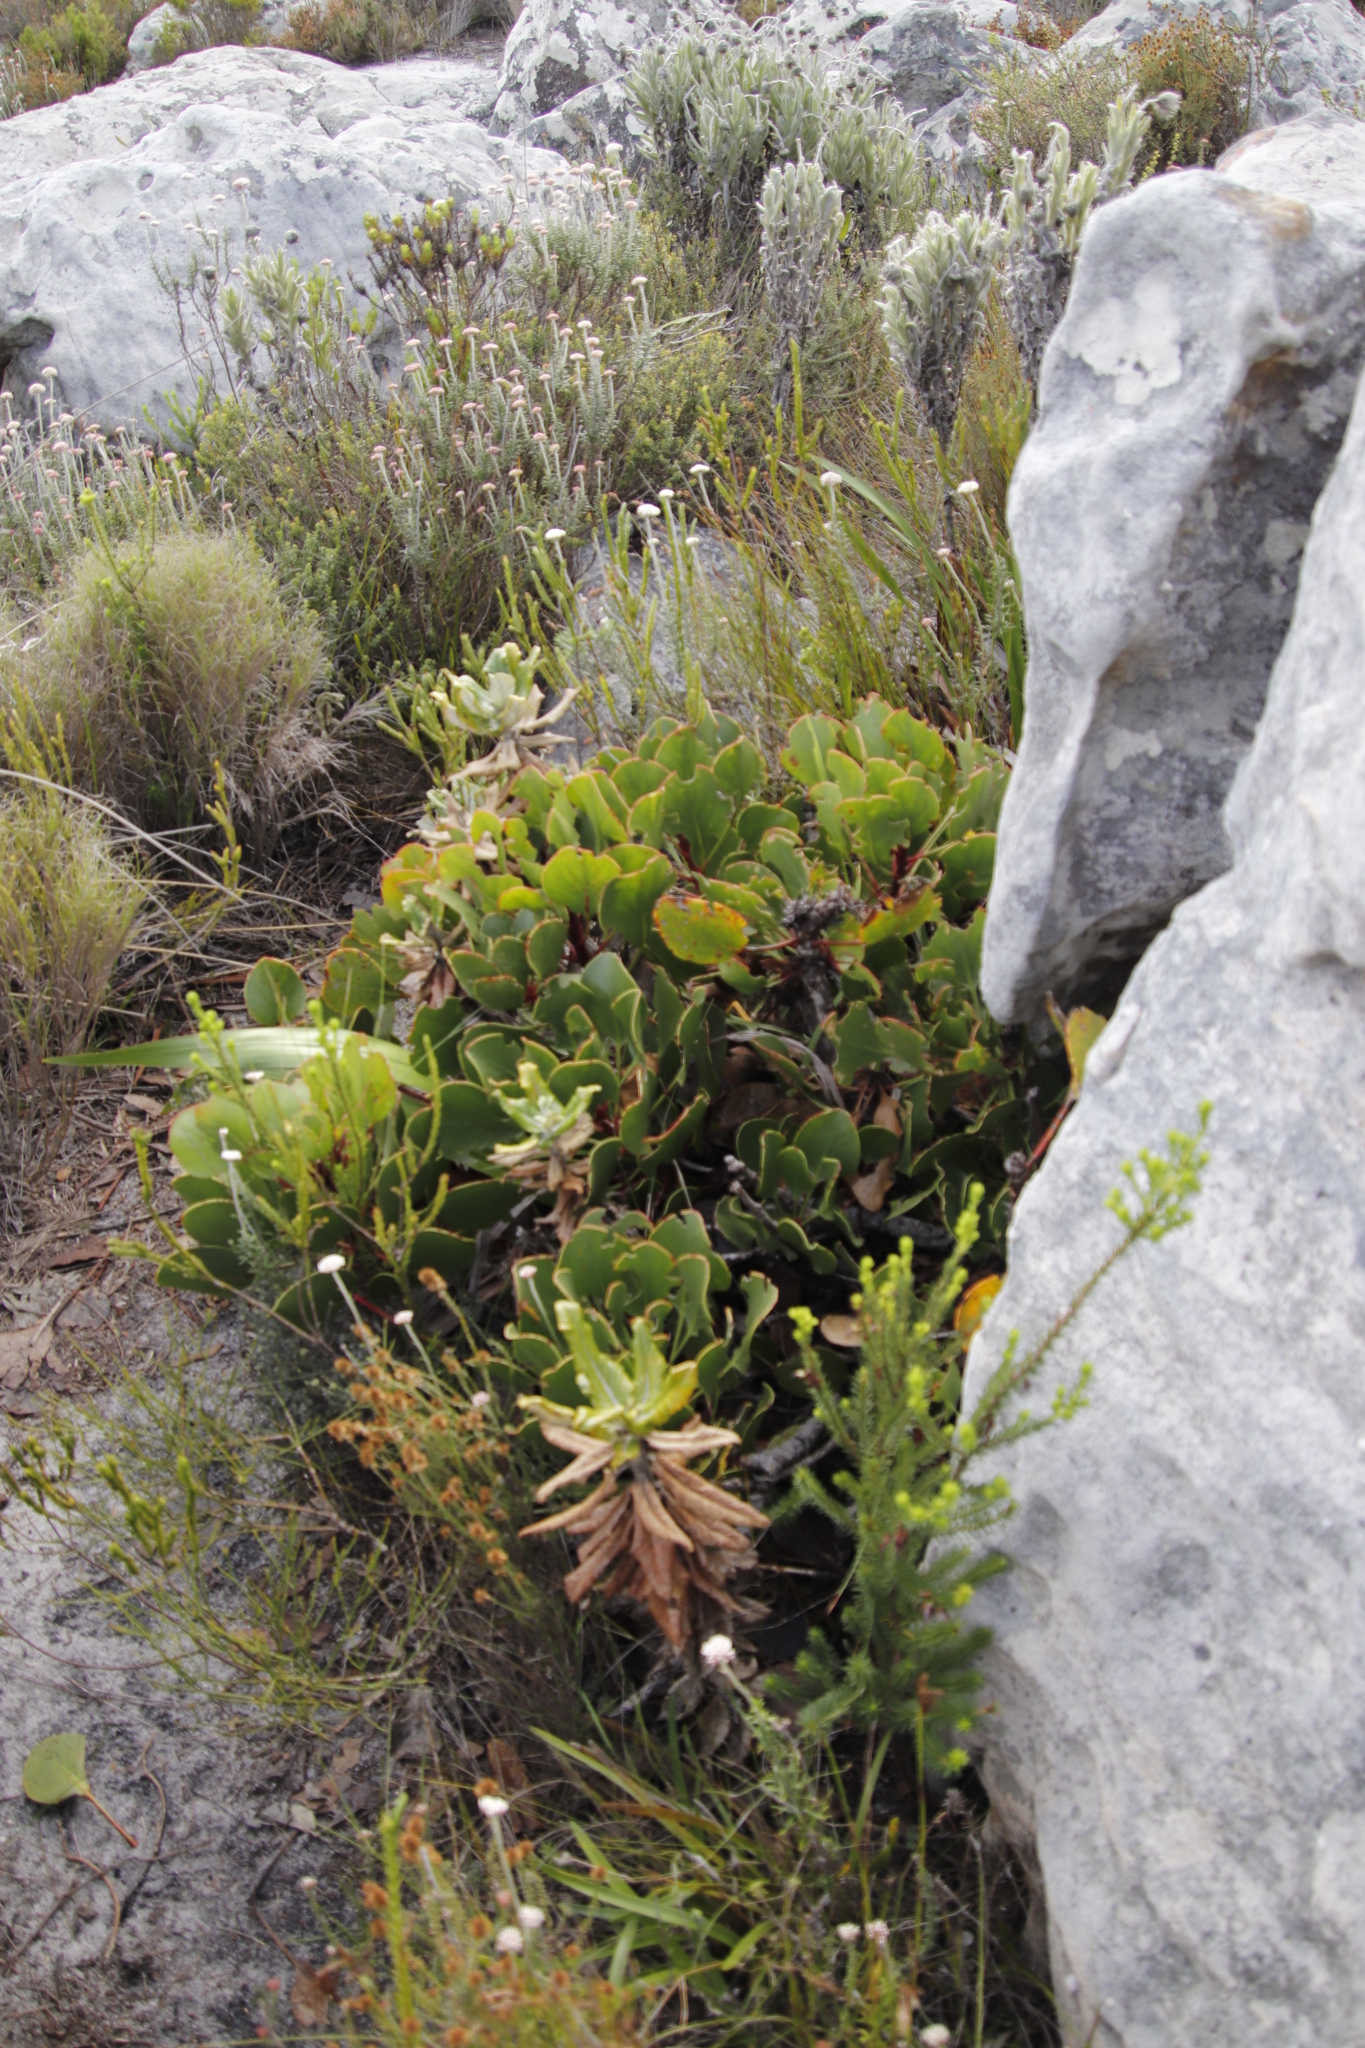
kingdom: Plantae
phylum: Tracheophyta
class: Magnoliopsida
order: Proteales
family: Proteaceae
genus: Protea
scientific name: Protea cynaroides
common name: King protea
